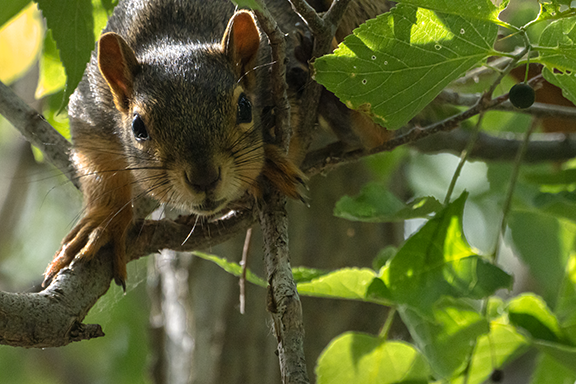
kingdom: Animalia
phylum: Chordata
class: Mammalia
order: Rodentia
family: Sciuridae
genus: Sciurus
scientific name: Sciurus niger
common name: Fox squirrel
